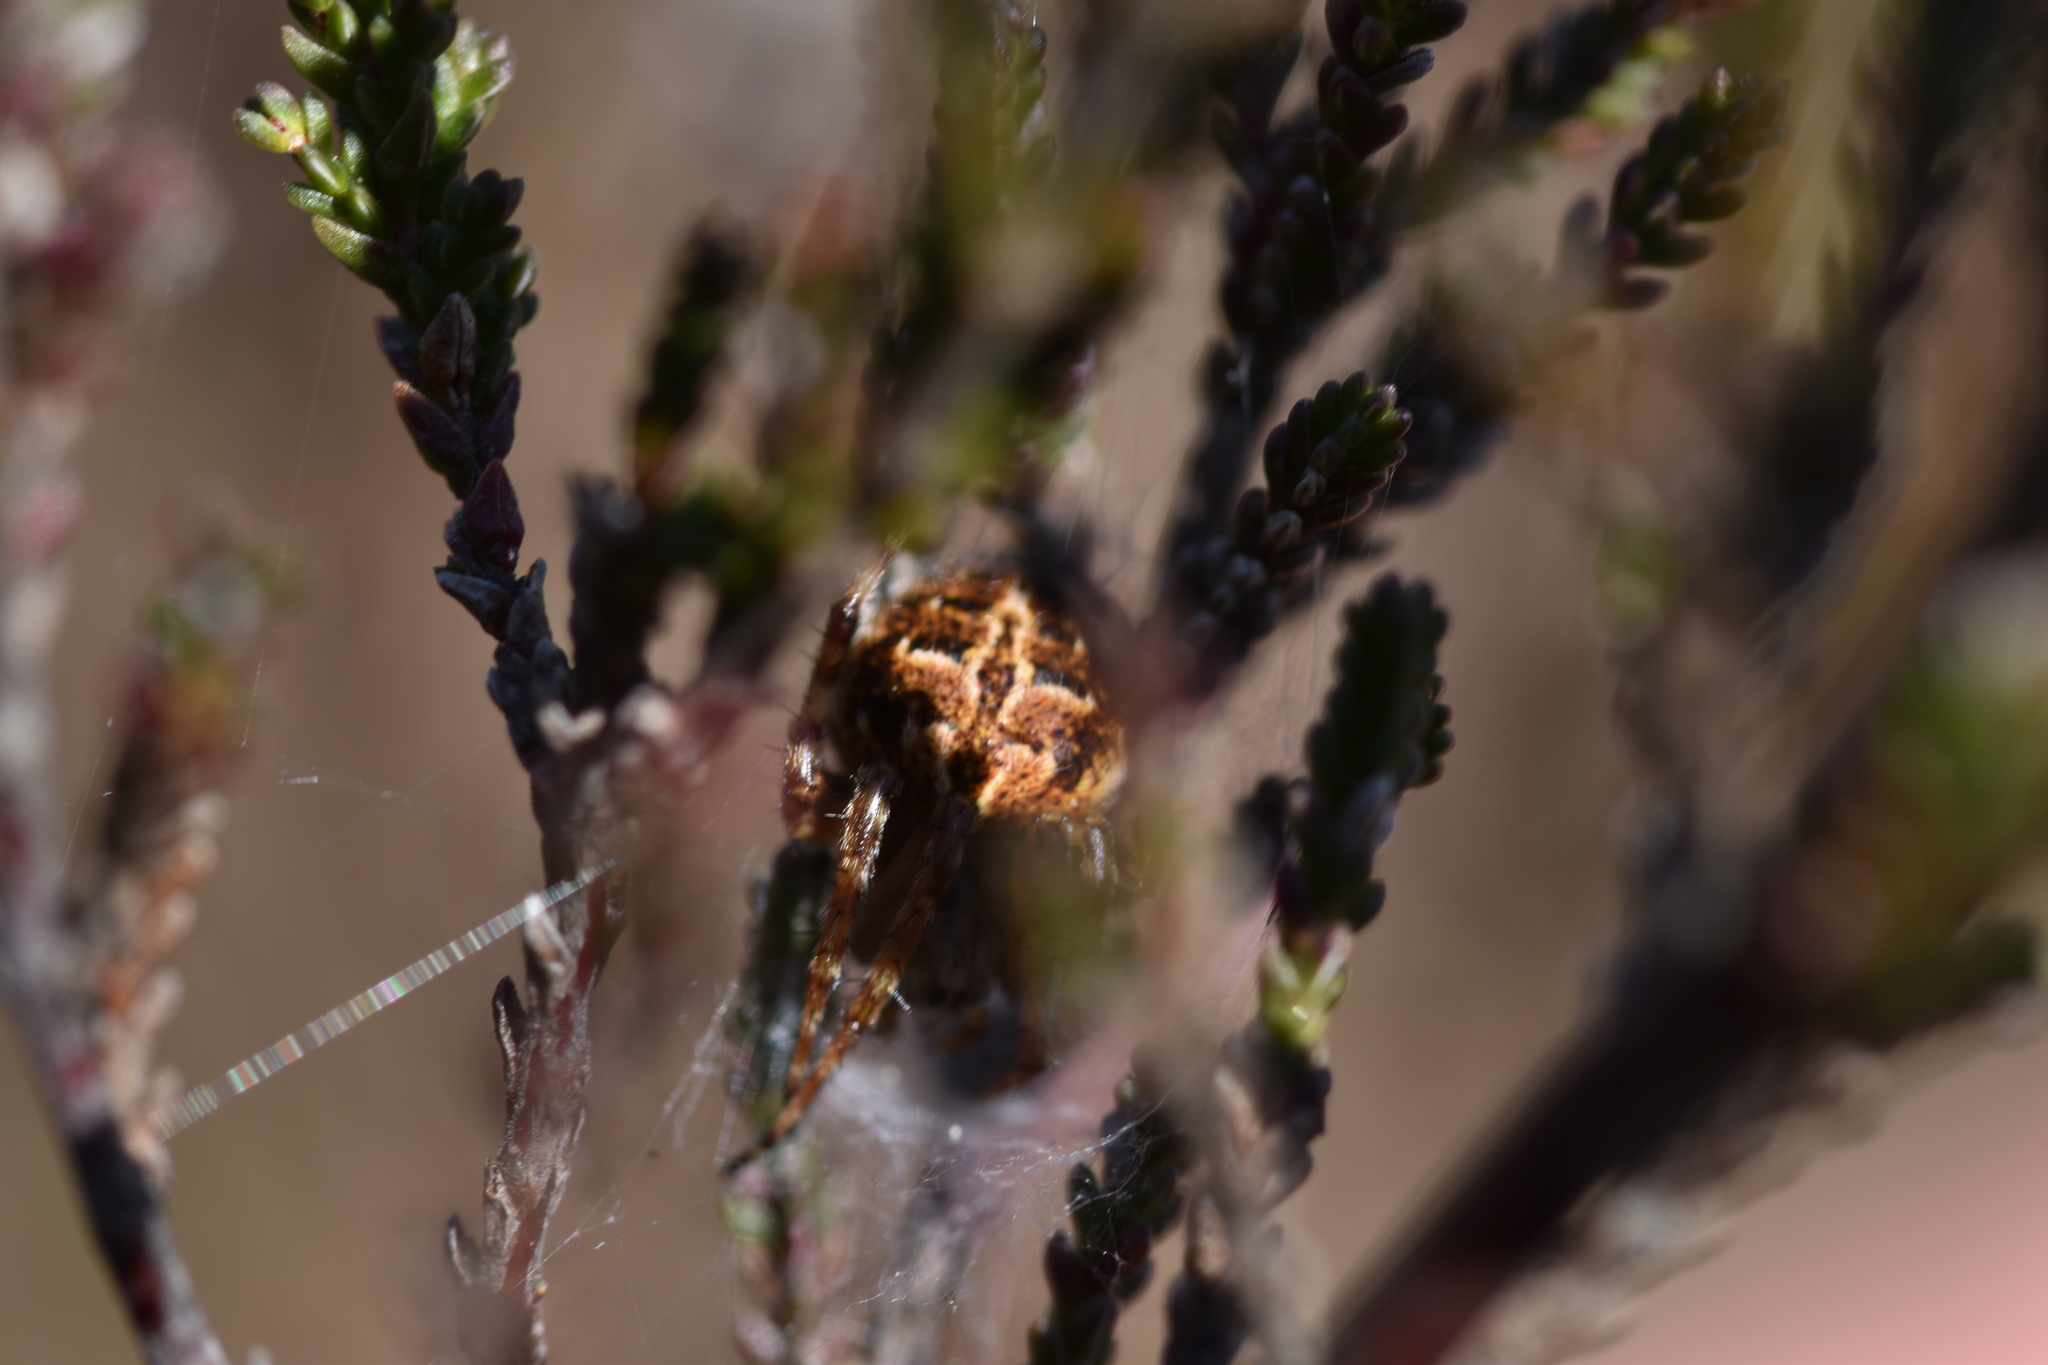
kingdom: Animalia
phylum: Arthropoda
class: Arachnida
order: Araneae
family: Araneidae
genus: Agalenatea
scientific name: Agalenatea redii
